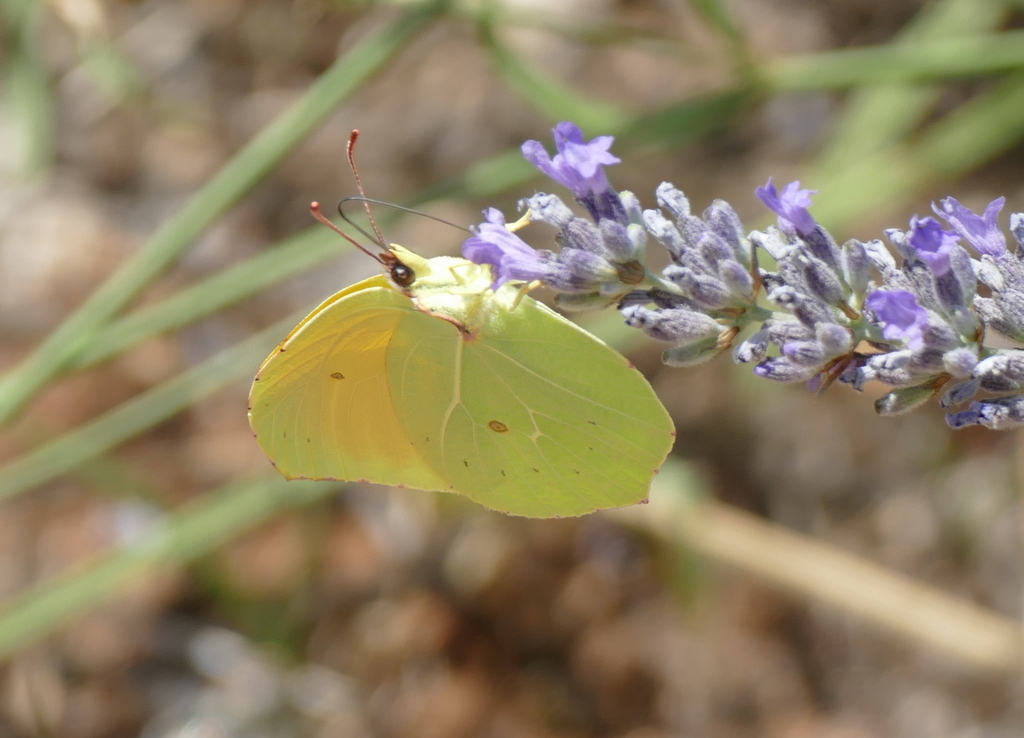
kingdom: Animalia
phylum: Arthropoda
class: Insecta
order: Lepidoptera
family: Pieridae
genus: Gonepteryx
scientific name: Gonepteryx cleopatra
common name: Cleopatra
